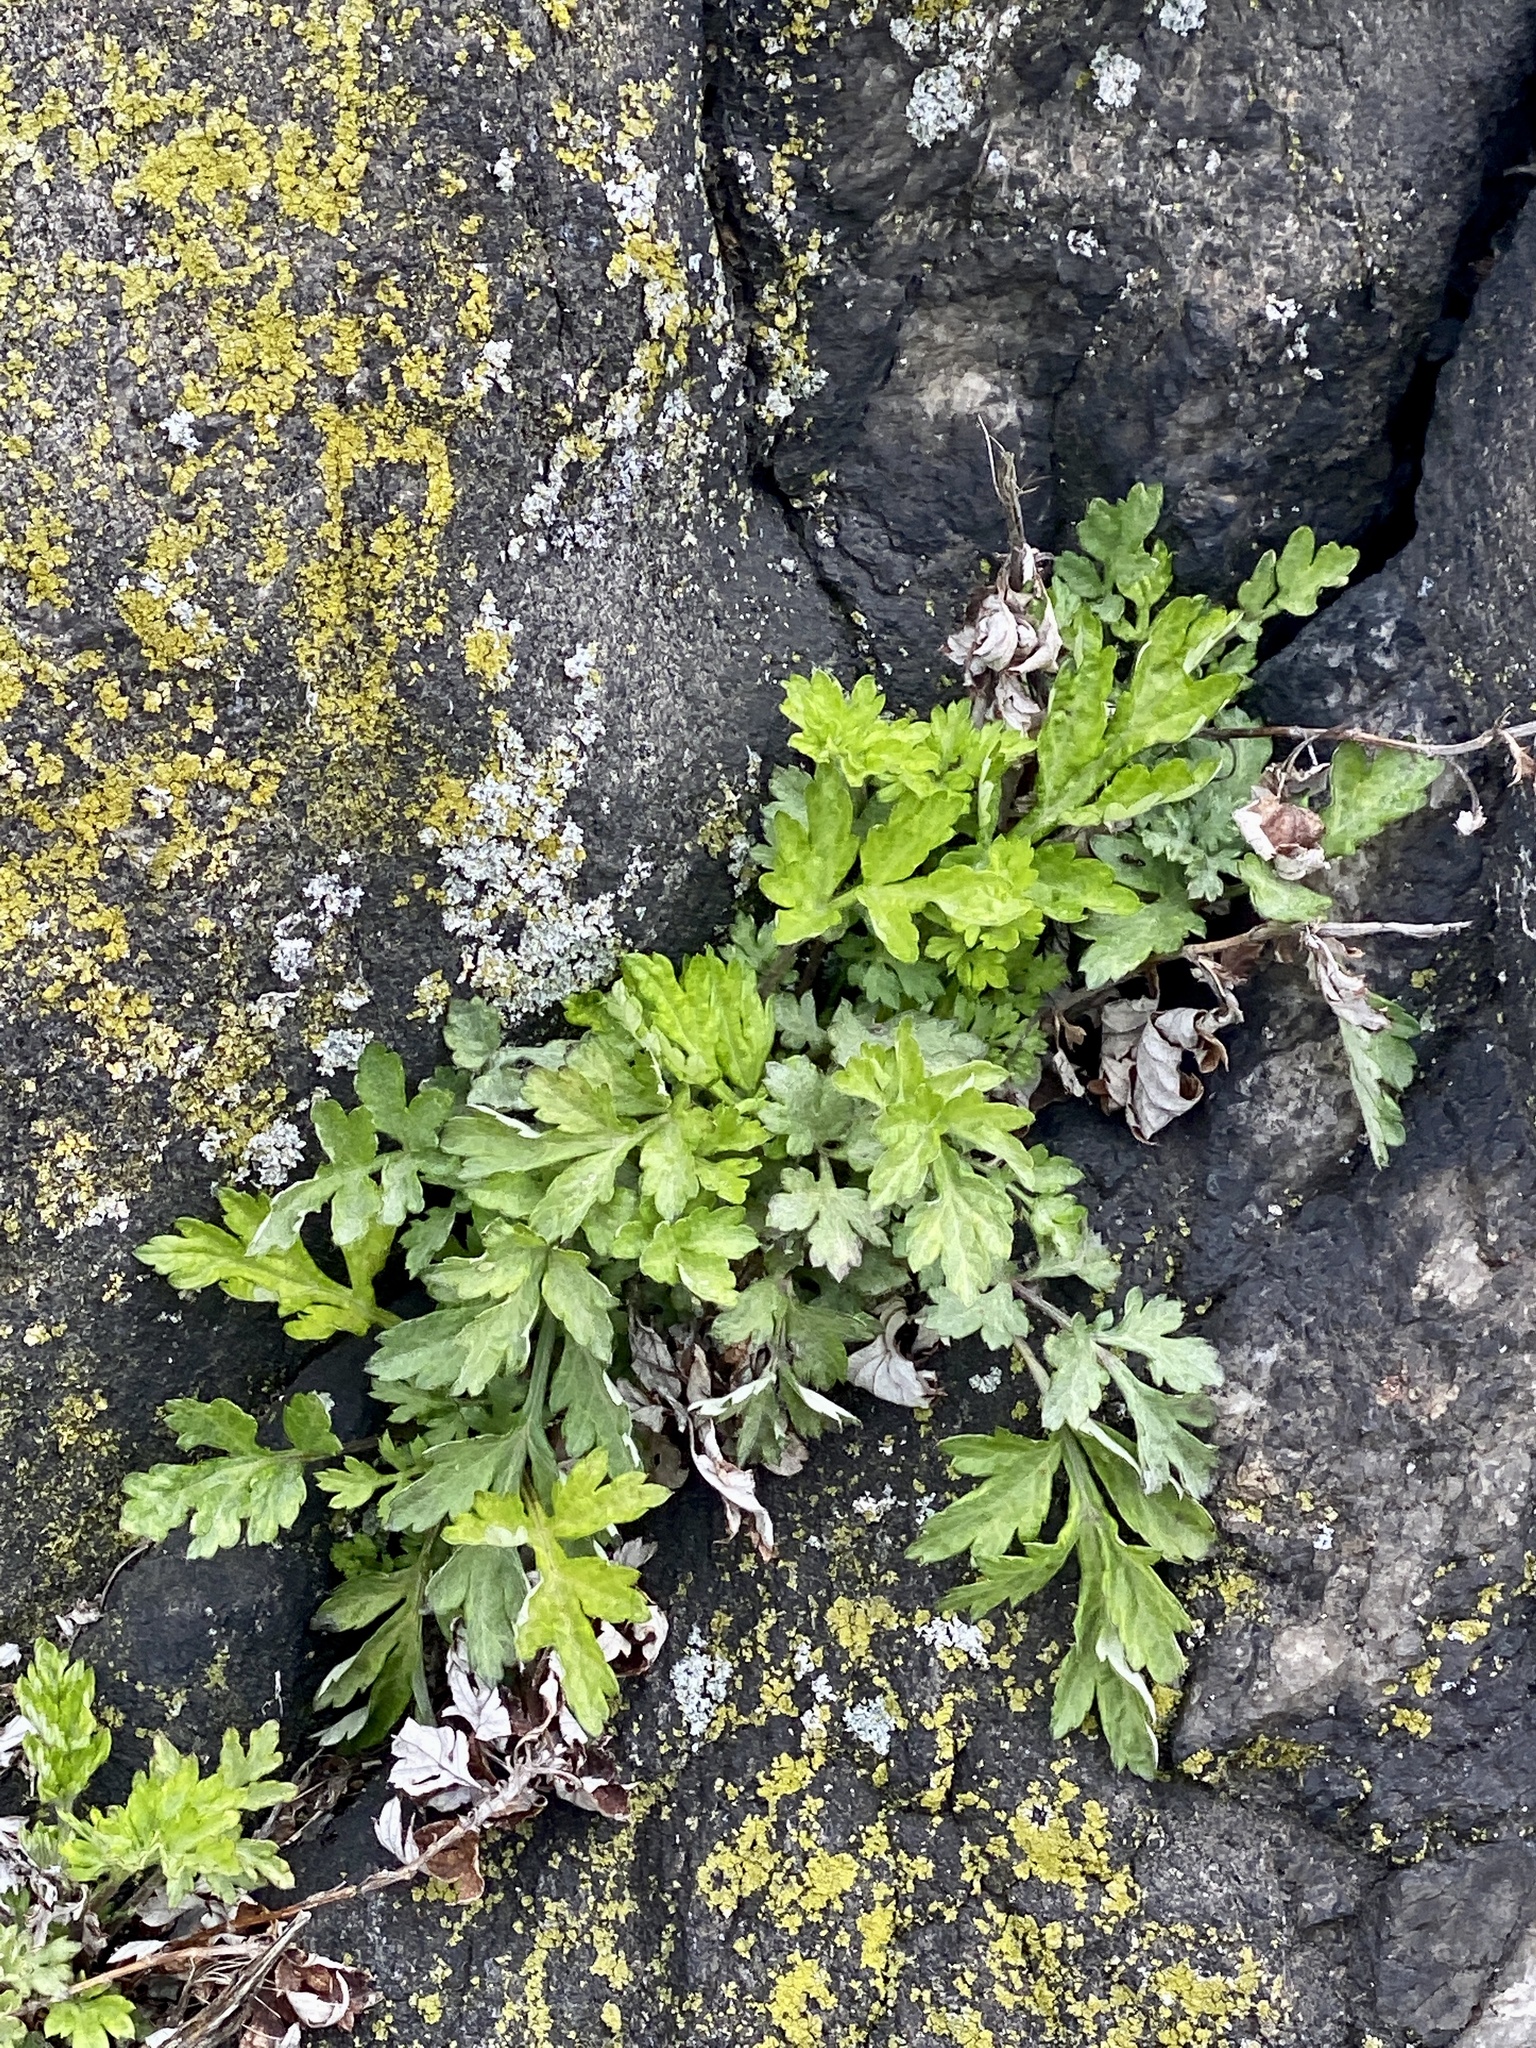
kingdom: Plantae
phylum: Tracheophyta
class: Magnoliopsida
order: Asterales
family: Asteraceae
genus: Artemisia
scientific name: Artemisia vulgaris
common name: Mugwort
